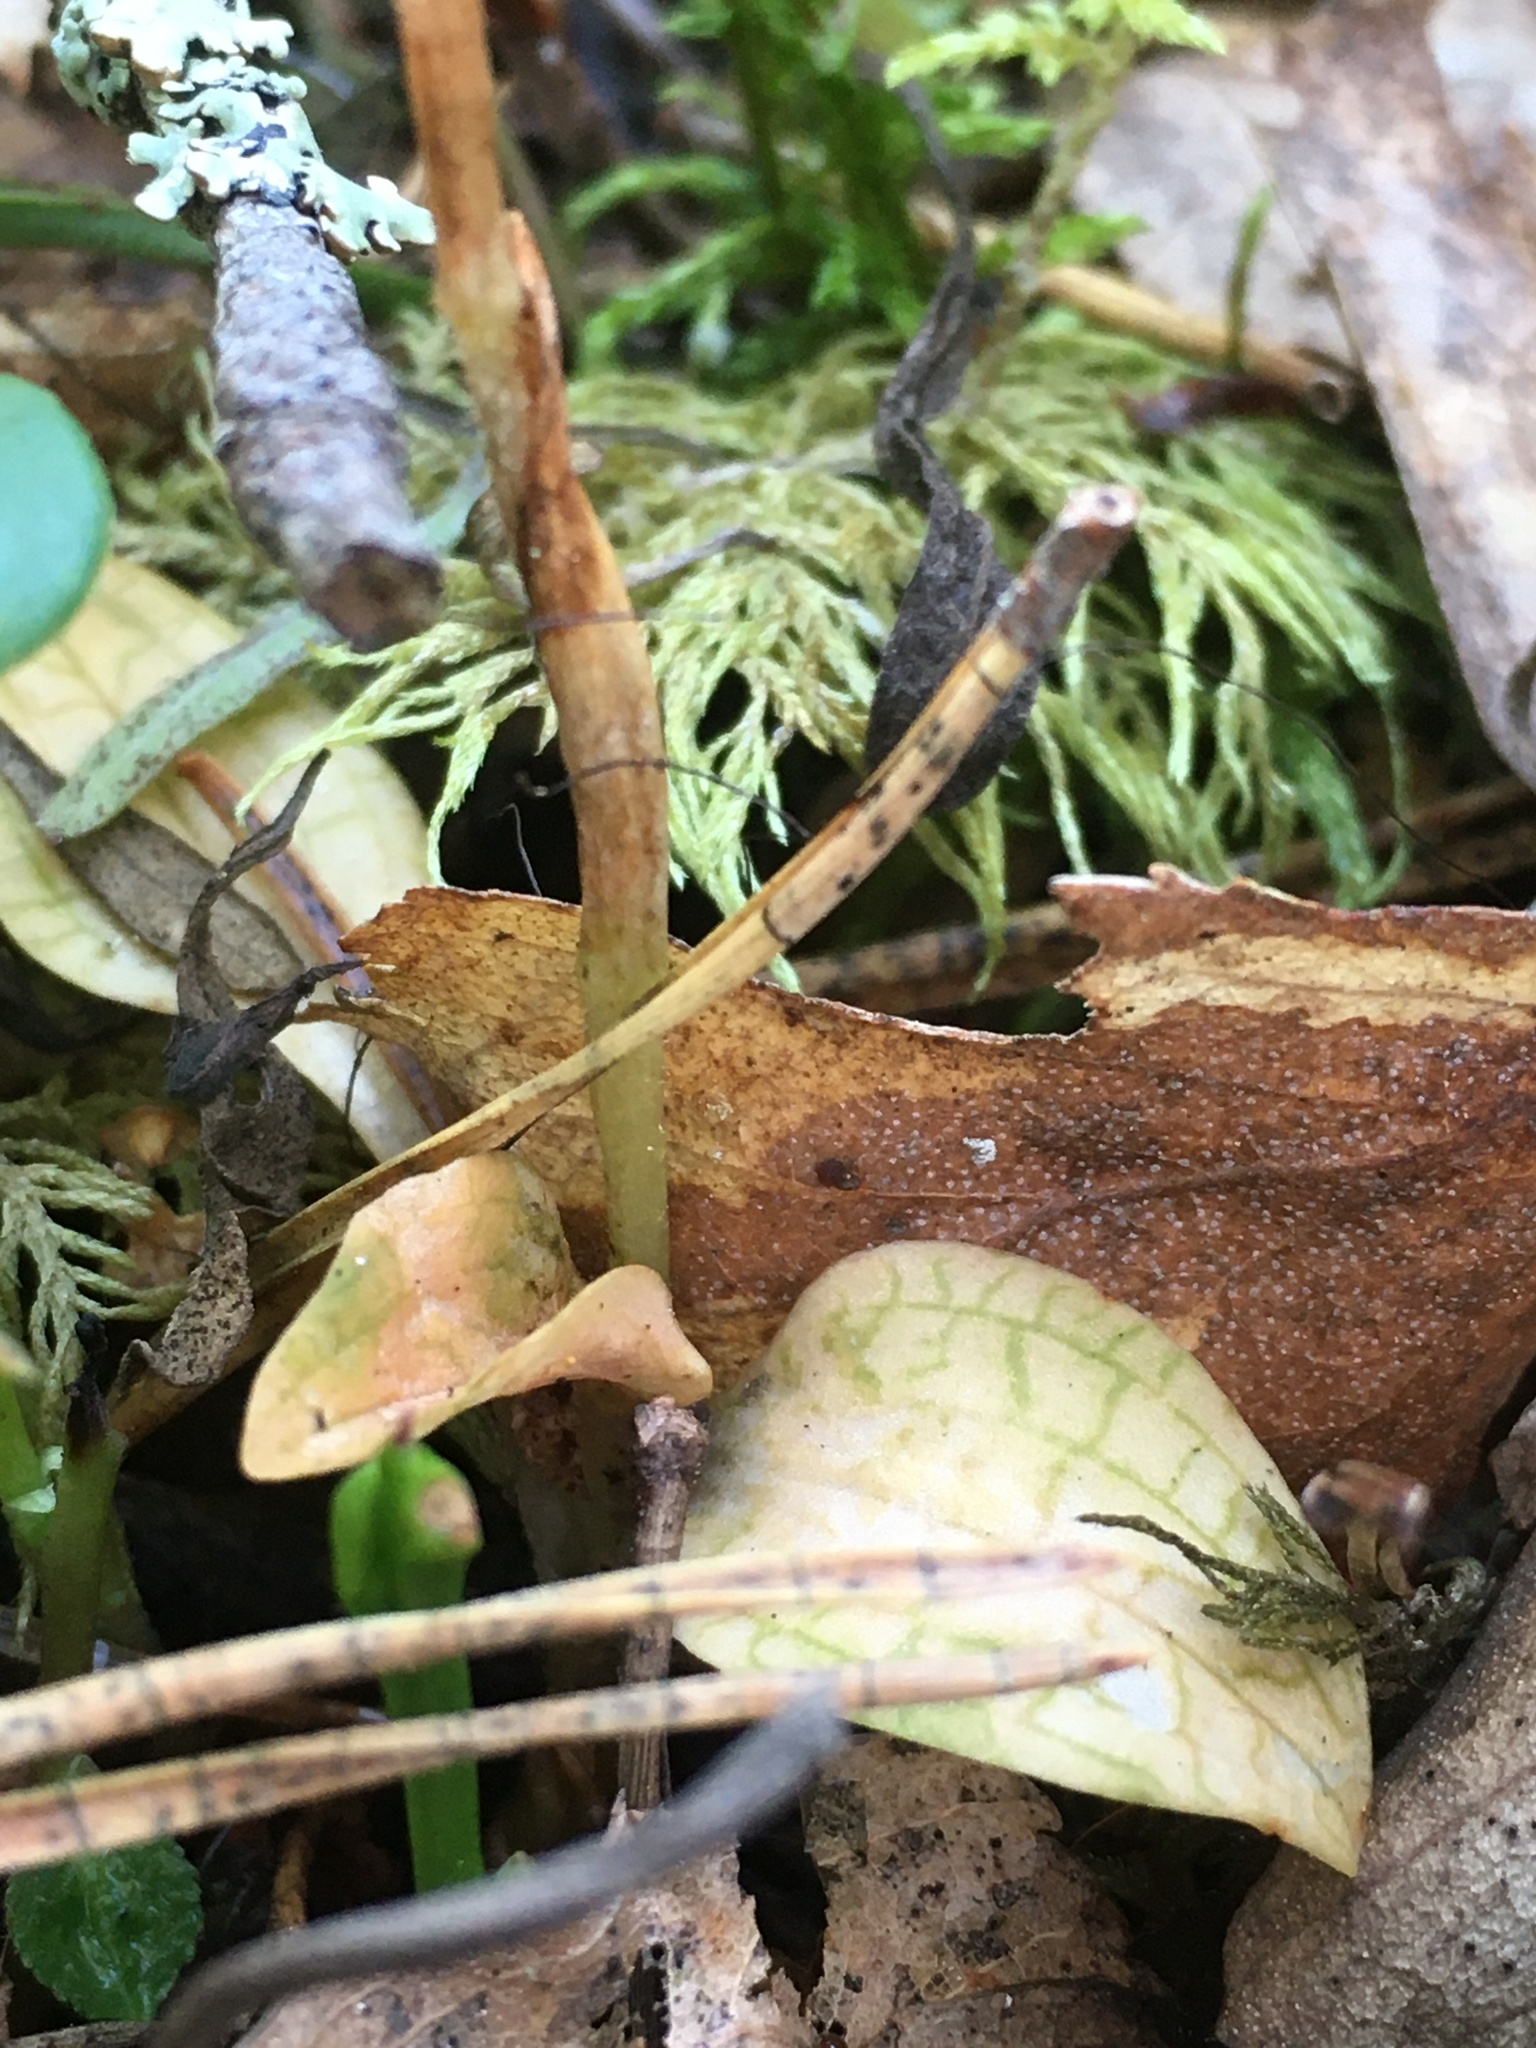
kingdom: Plantae
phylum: Tracheophyta
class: Liliopsida
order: Asparagales
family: Orchidaceae
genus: Goodyera
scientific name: Goodyera repens
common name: Creeping lady's-tresses
